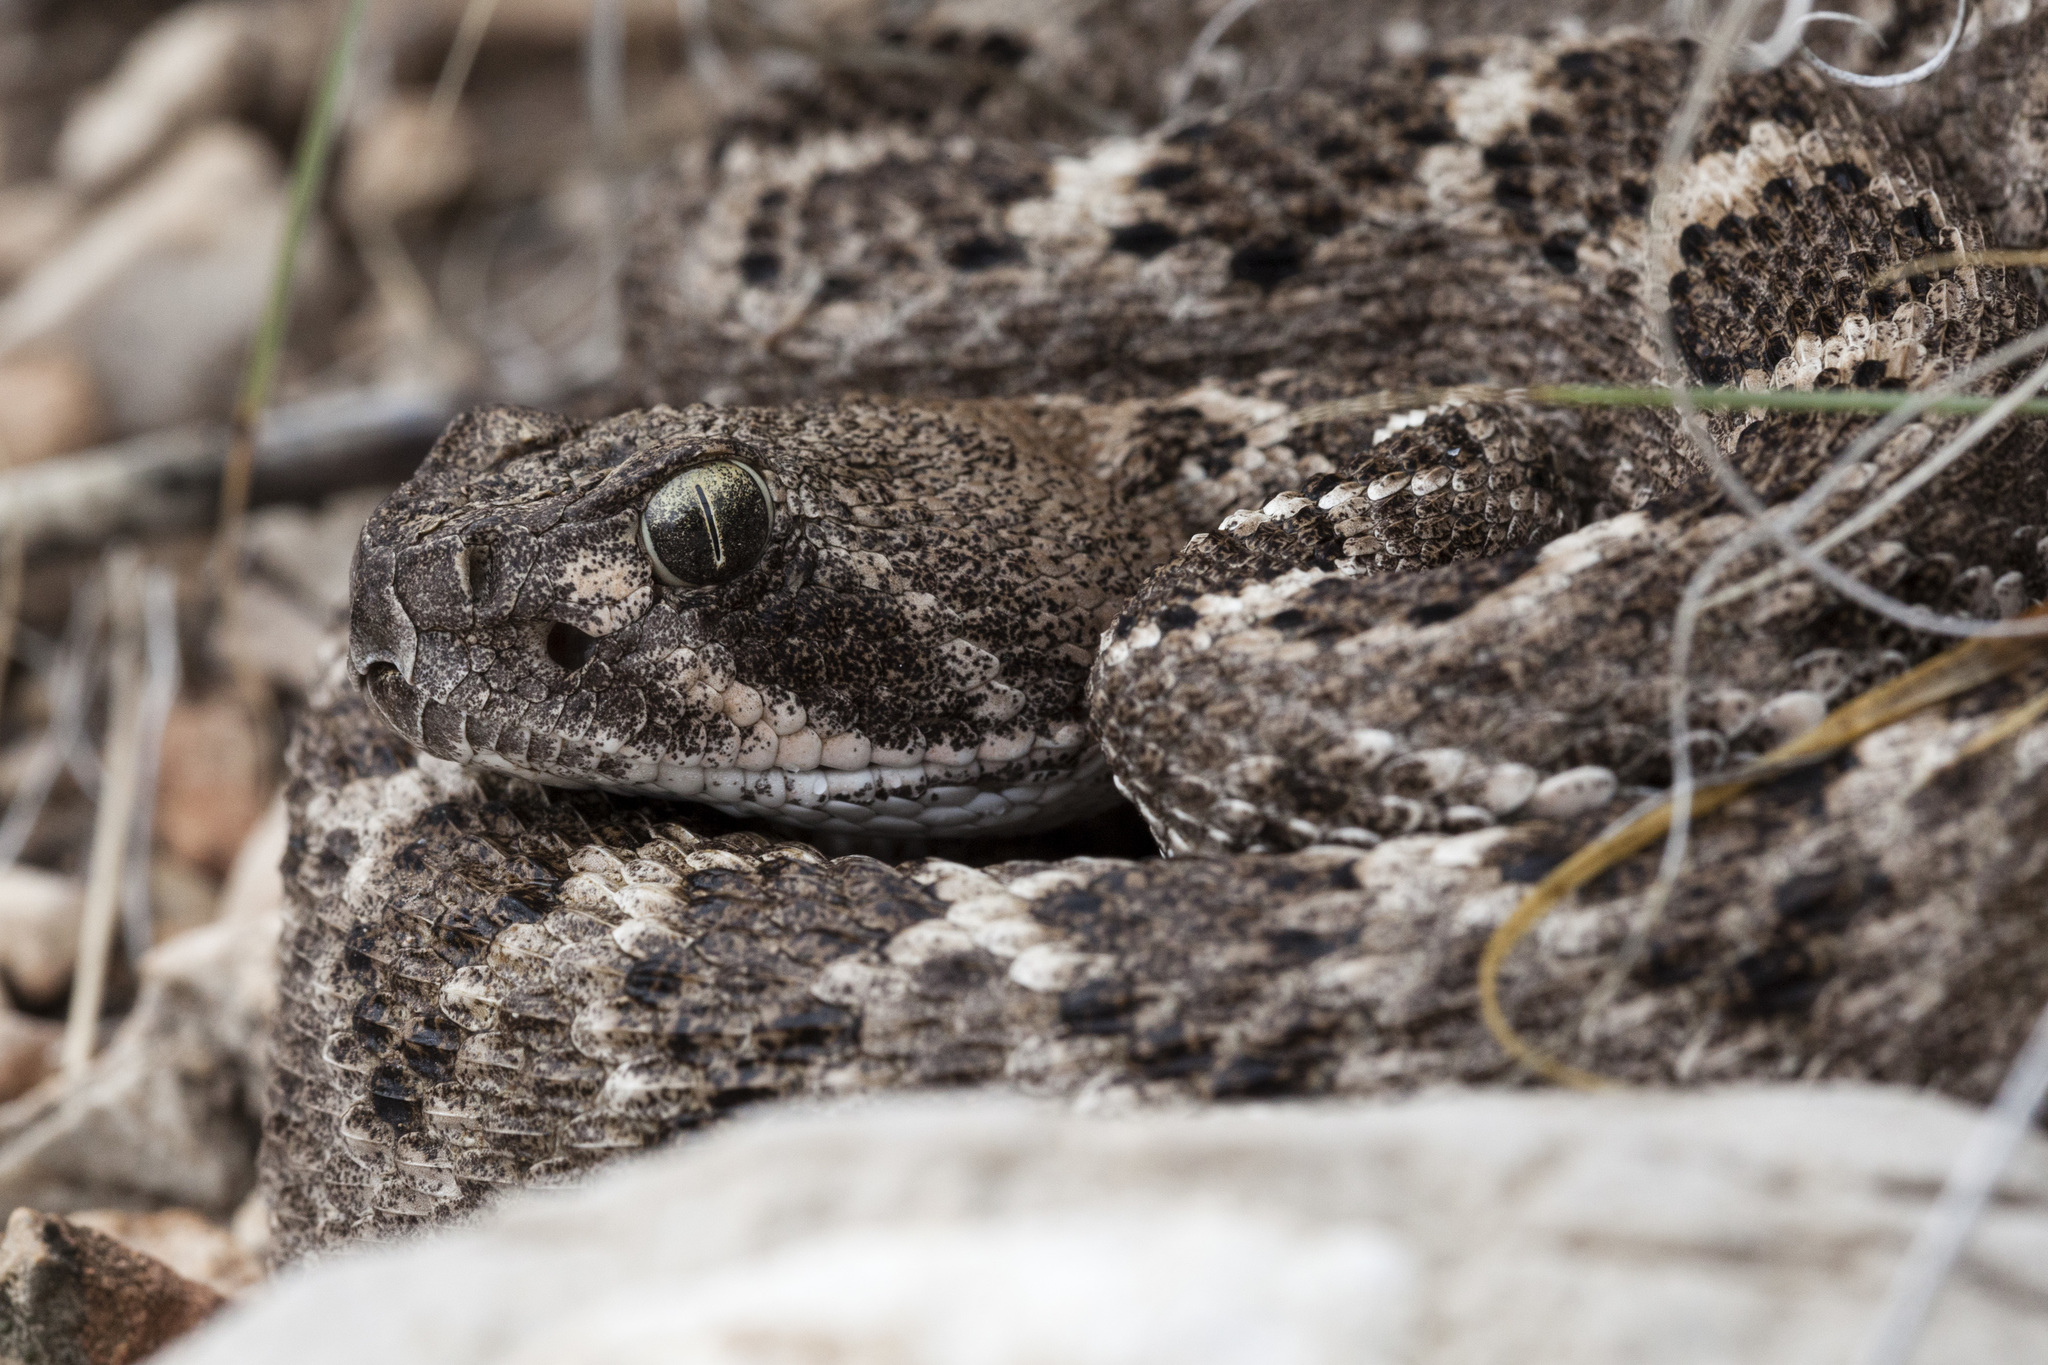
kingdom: Animalia
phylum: Chordata
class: Squamata
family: Viperidae
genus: Crotalus
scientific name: Crotalus atrox
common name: Western diamond-backed rattlesnake
